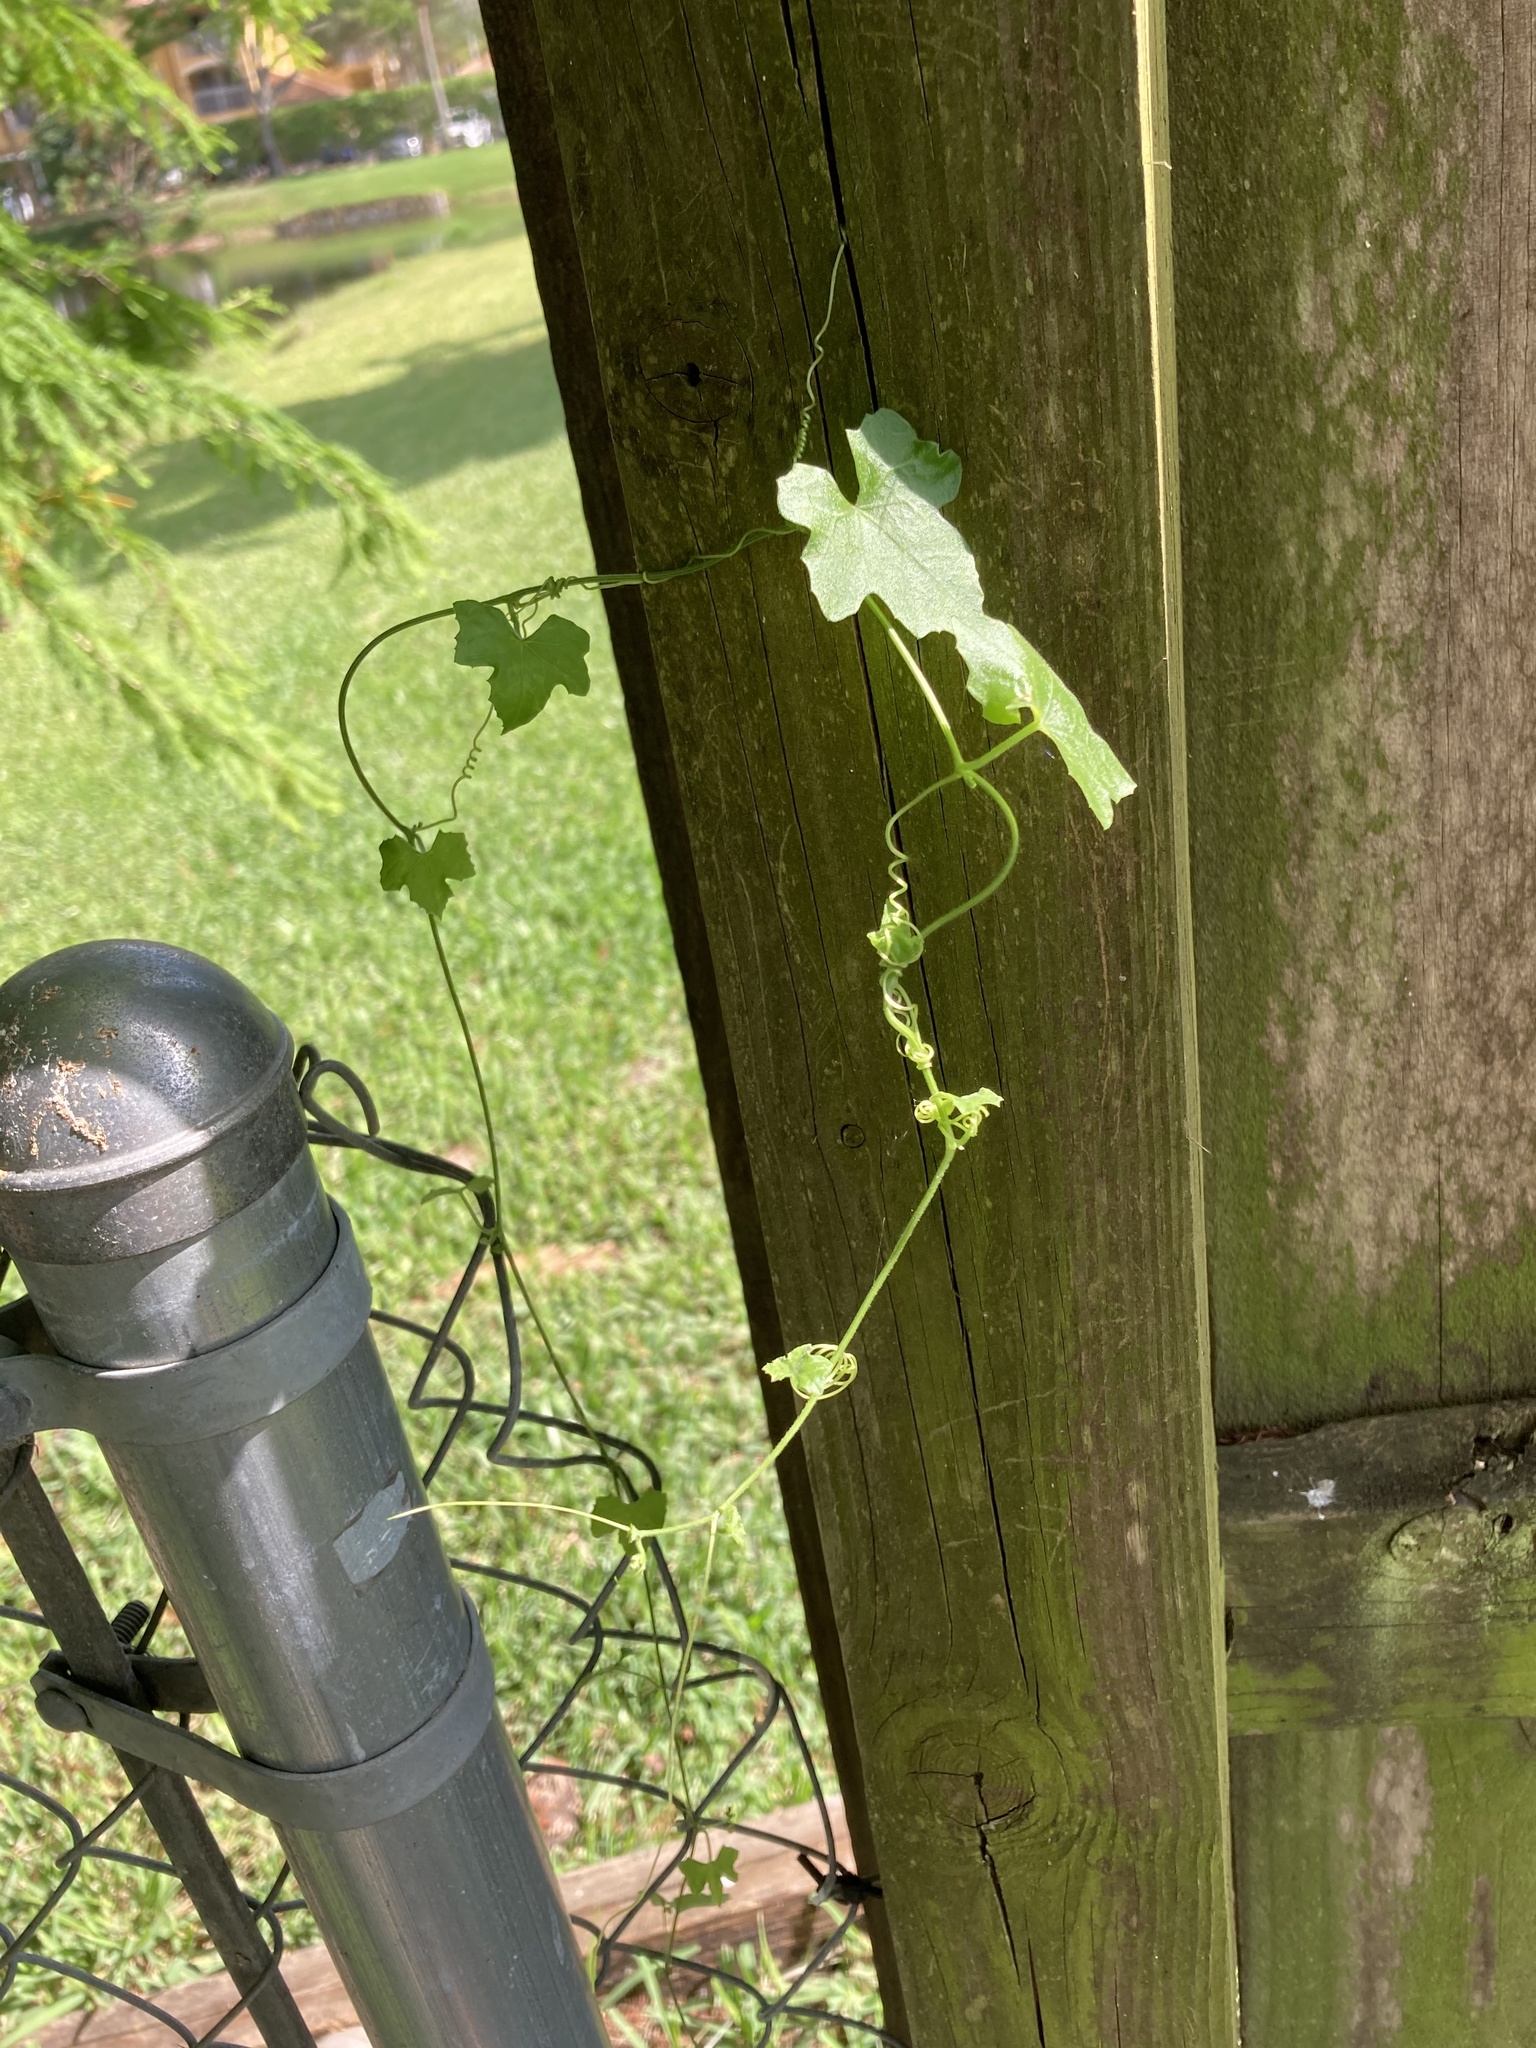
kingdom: Plantae
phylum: Tracheophyta
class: Magnoliopsida
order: Cucurbitales
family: Cucurbitaceae
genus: Melothria
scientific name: Melothria pendula
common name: Creeping-cucumber
